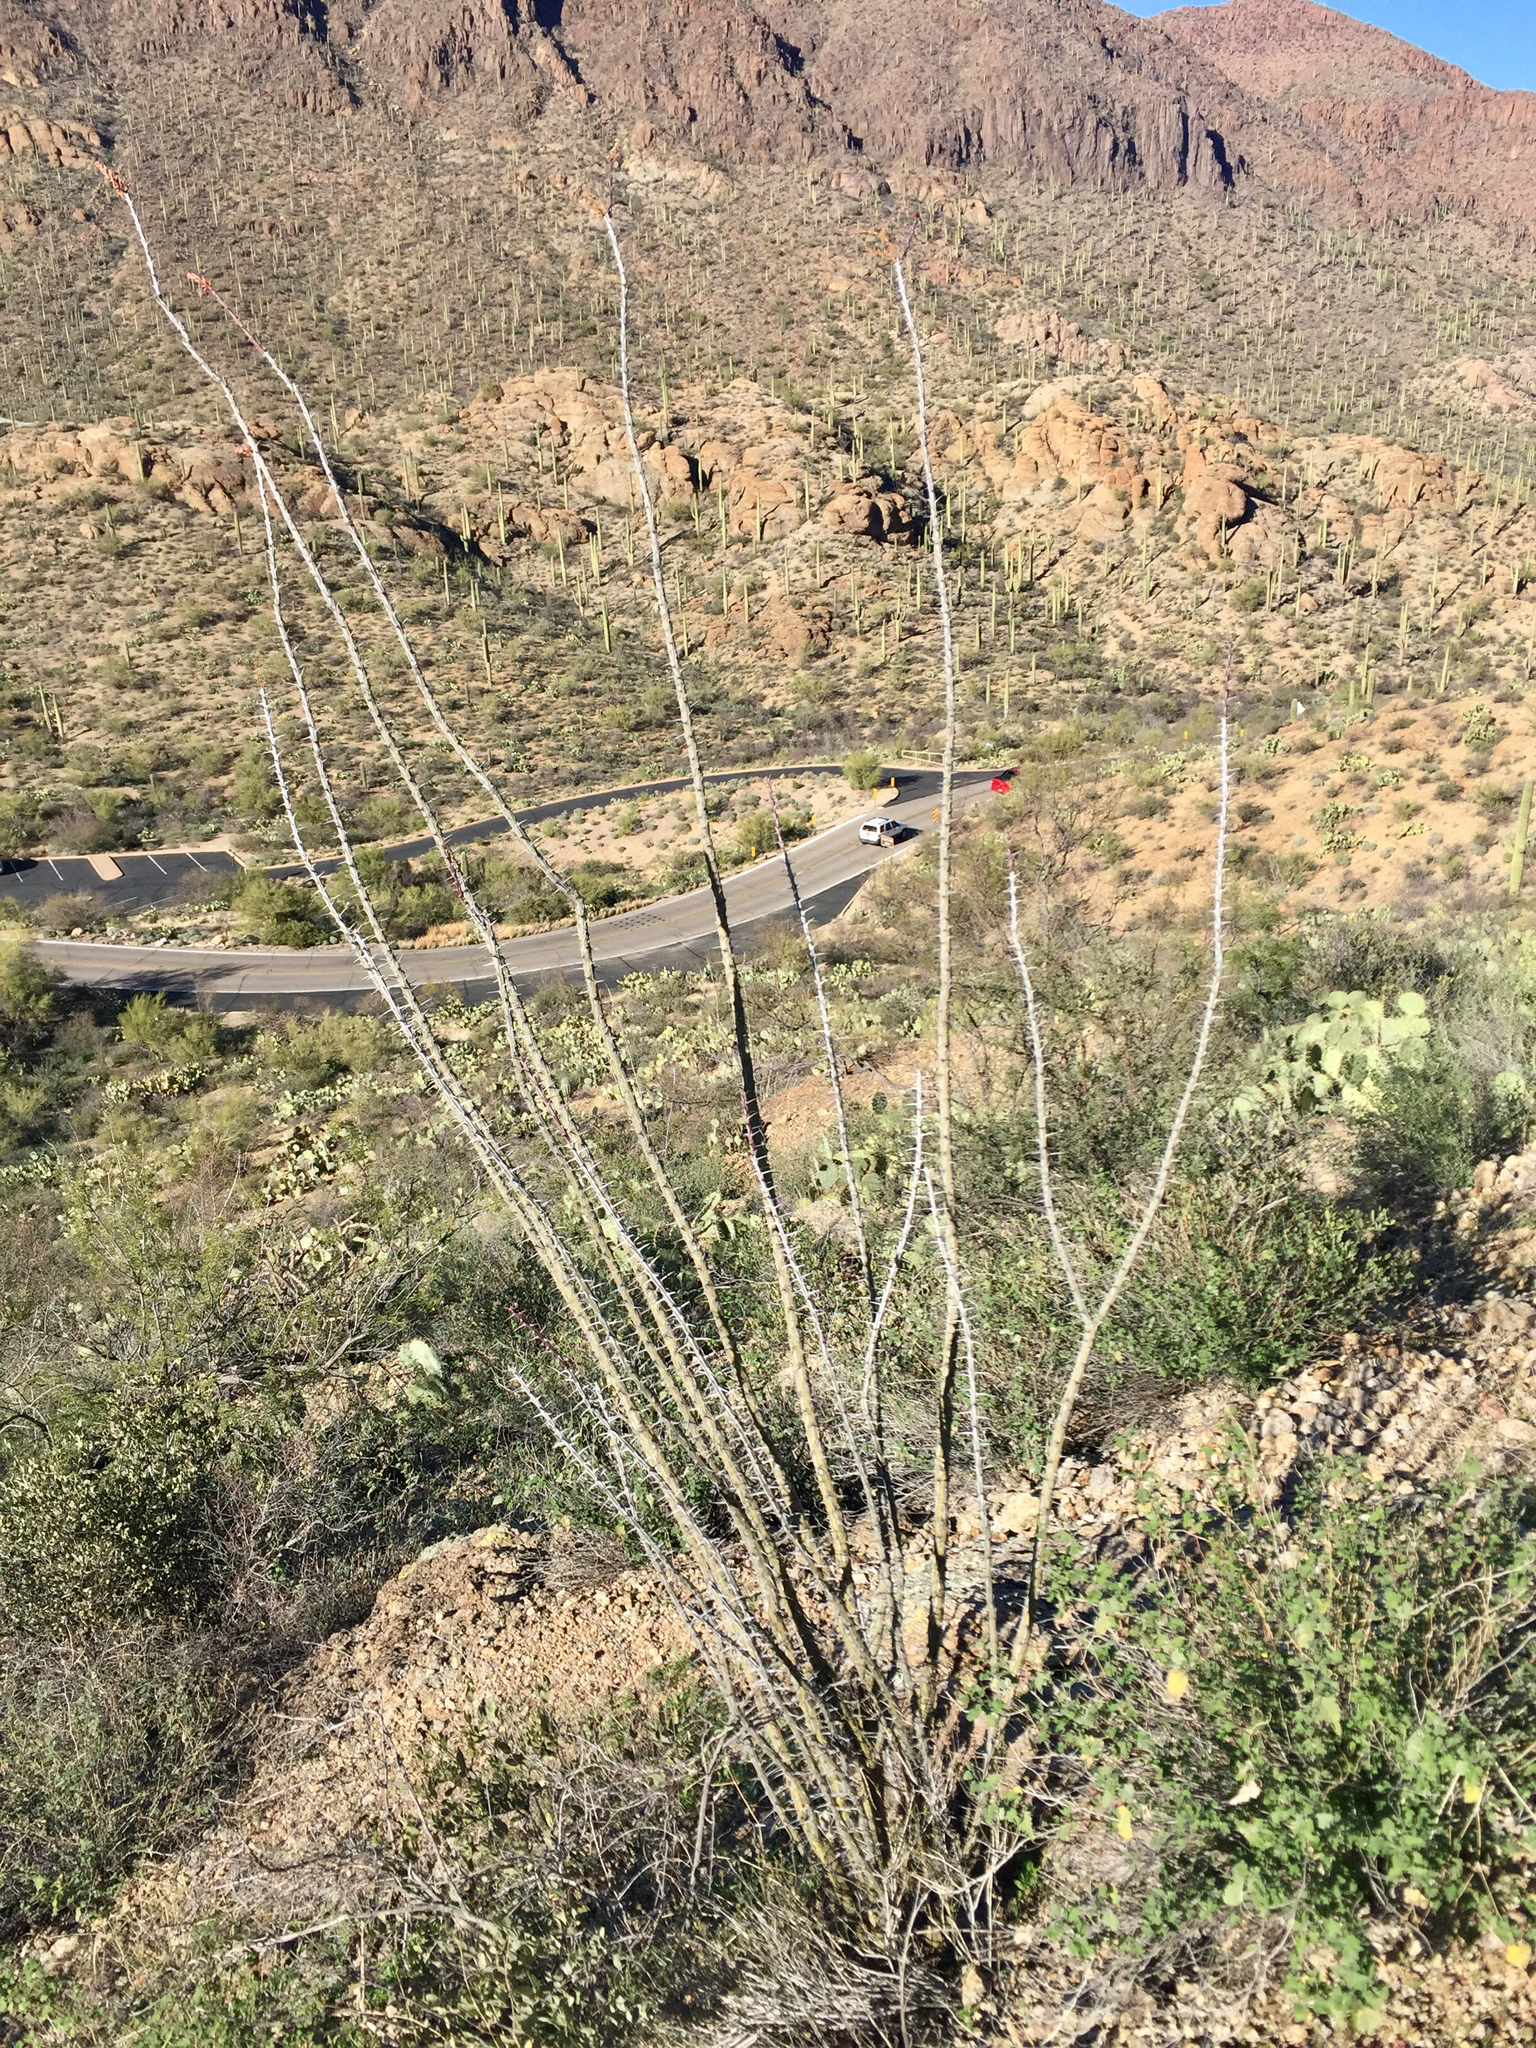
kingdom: Plantae
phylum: Tracheophyta
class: Magnoliopsida
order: Ericales
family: Fouquieriaceae
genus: Fouquieria
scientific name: Fouquieria splendens
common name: Vine-cactus
